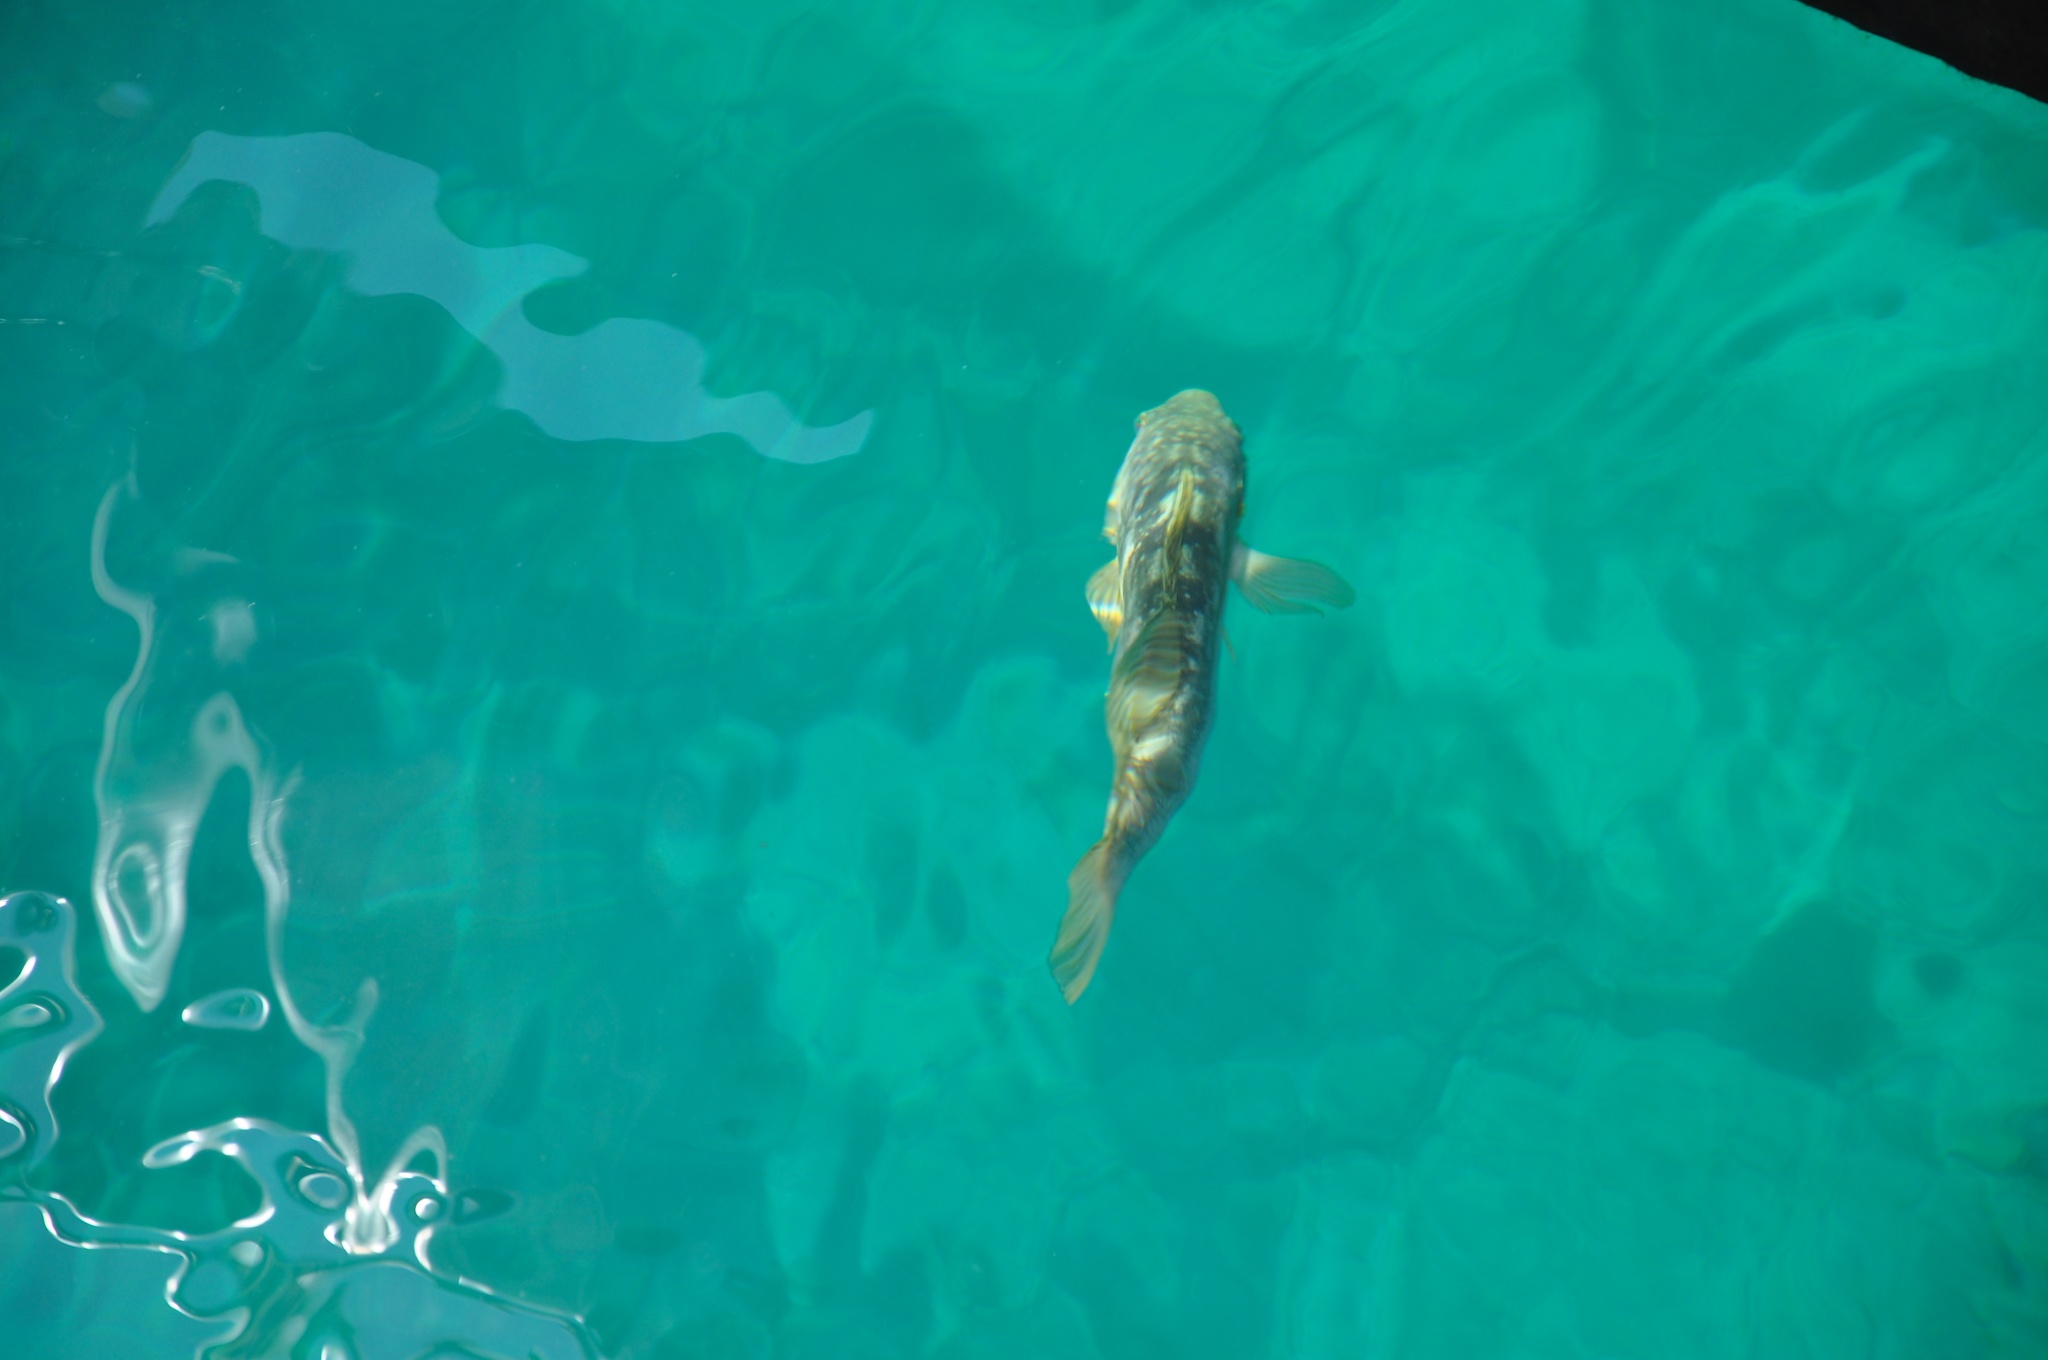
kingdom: Animalia
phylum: Chordata
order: Perciformes
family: Serranidae
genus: Paralabrax
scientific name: Paralabrax clathratus
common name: Kelp bass
